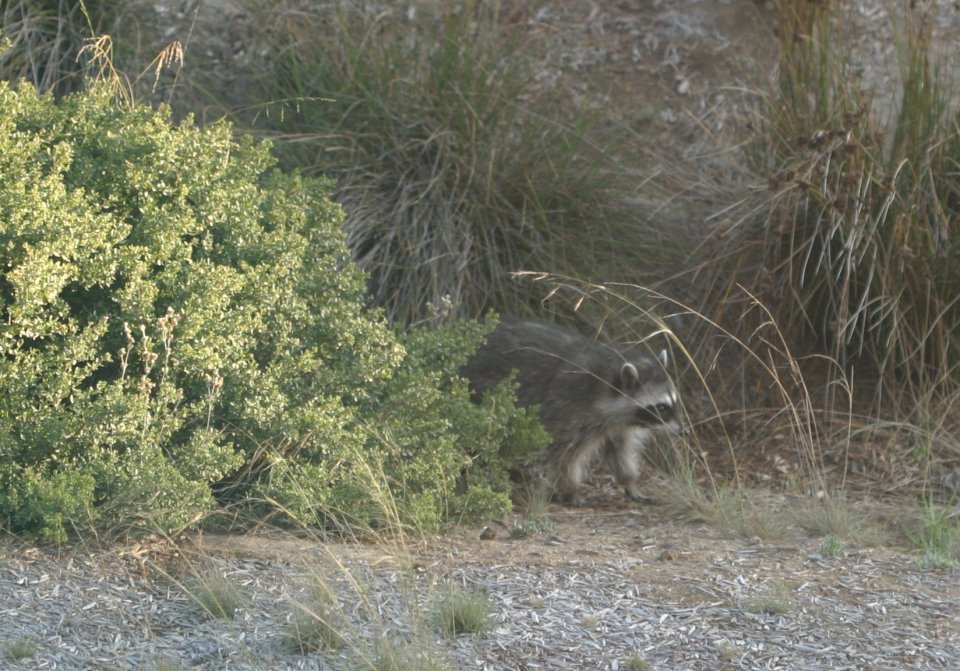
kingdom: Animalia
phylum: Chordata
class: Mammalia
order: Carnivora
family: Procyonidae
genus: Procyon
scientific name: Procyon lotor
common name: Raccoon
